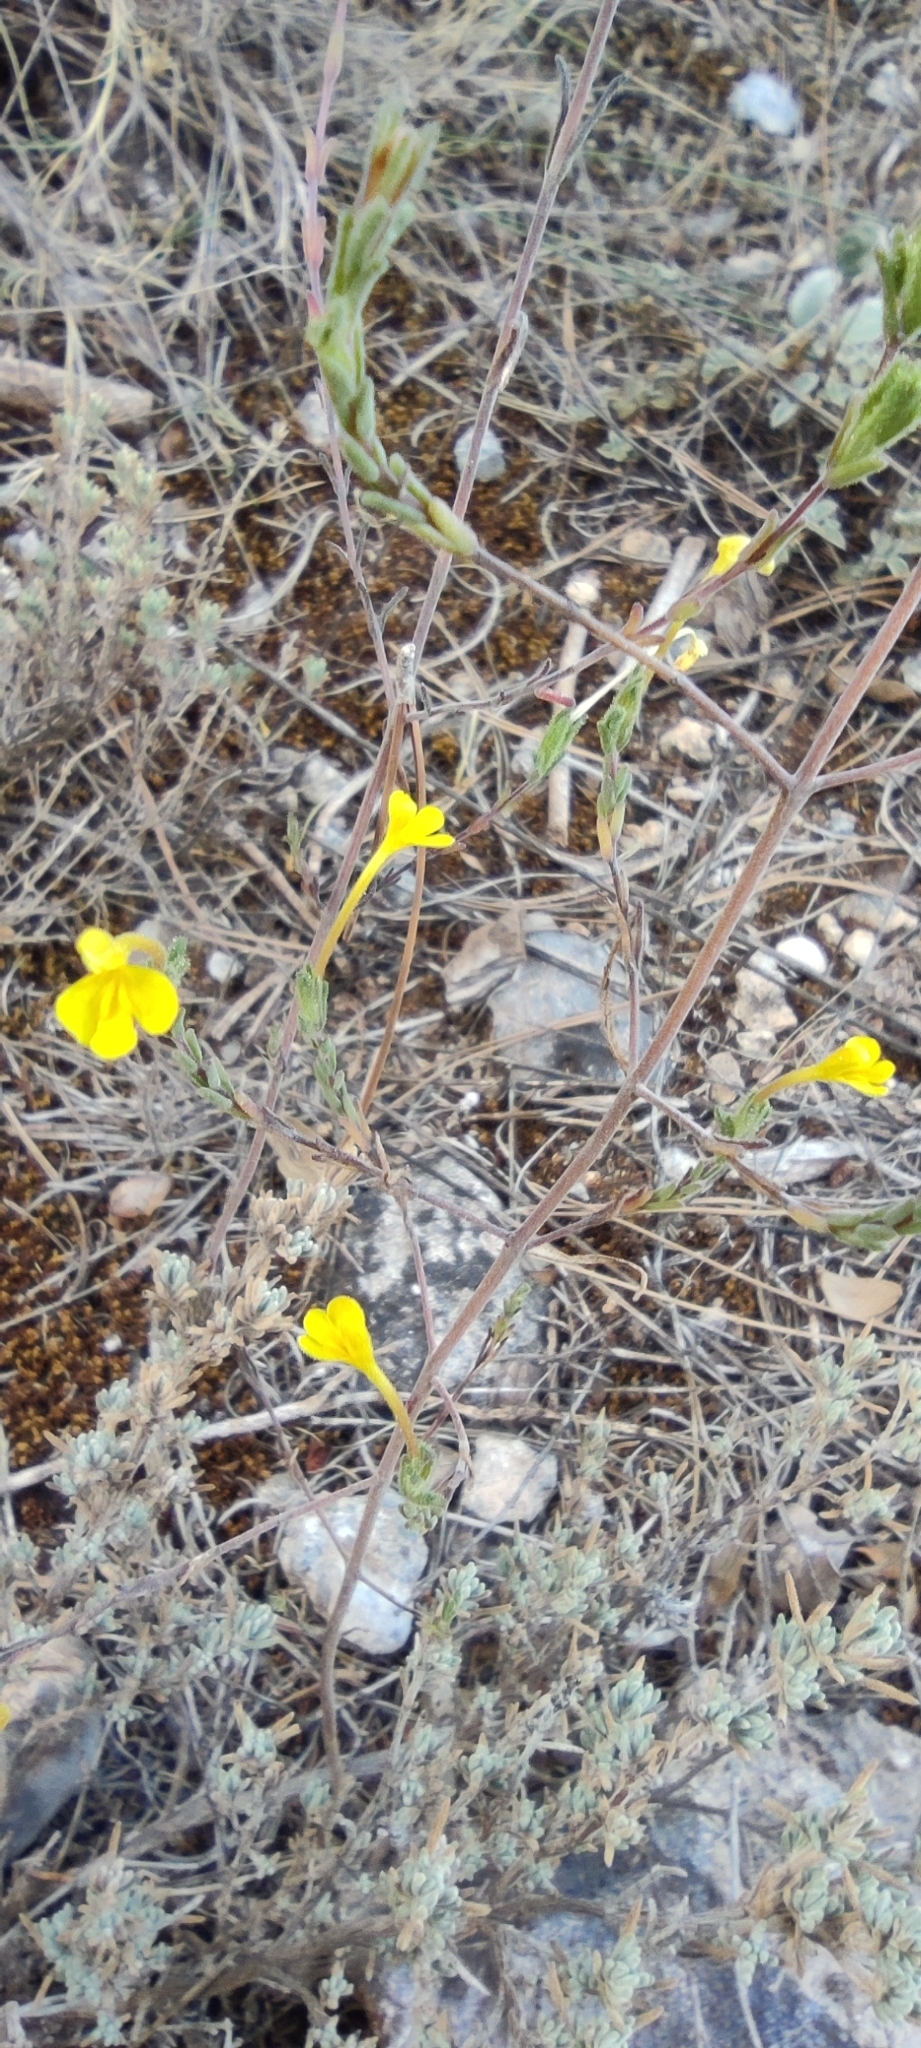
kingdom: Plantae
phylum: Tracheophyta
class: Magnoliopsida
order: Lamiales
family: Orobanchaceae
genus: Odontites
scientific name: Odontites longiflorus
